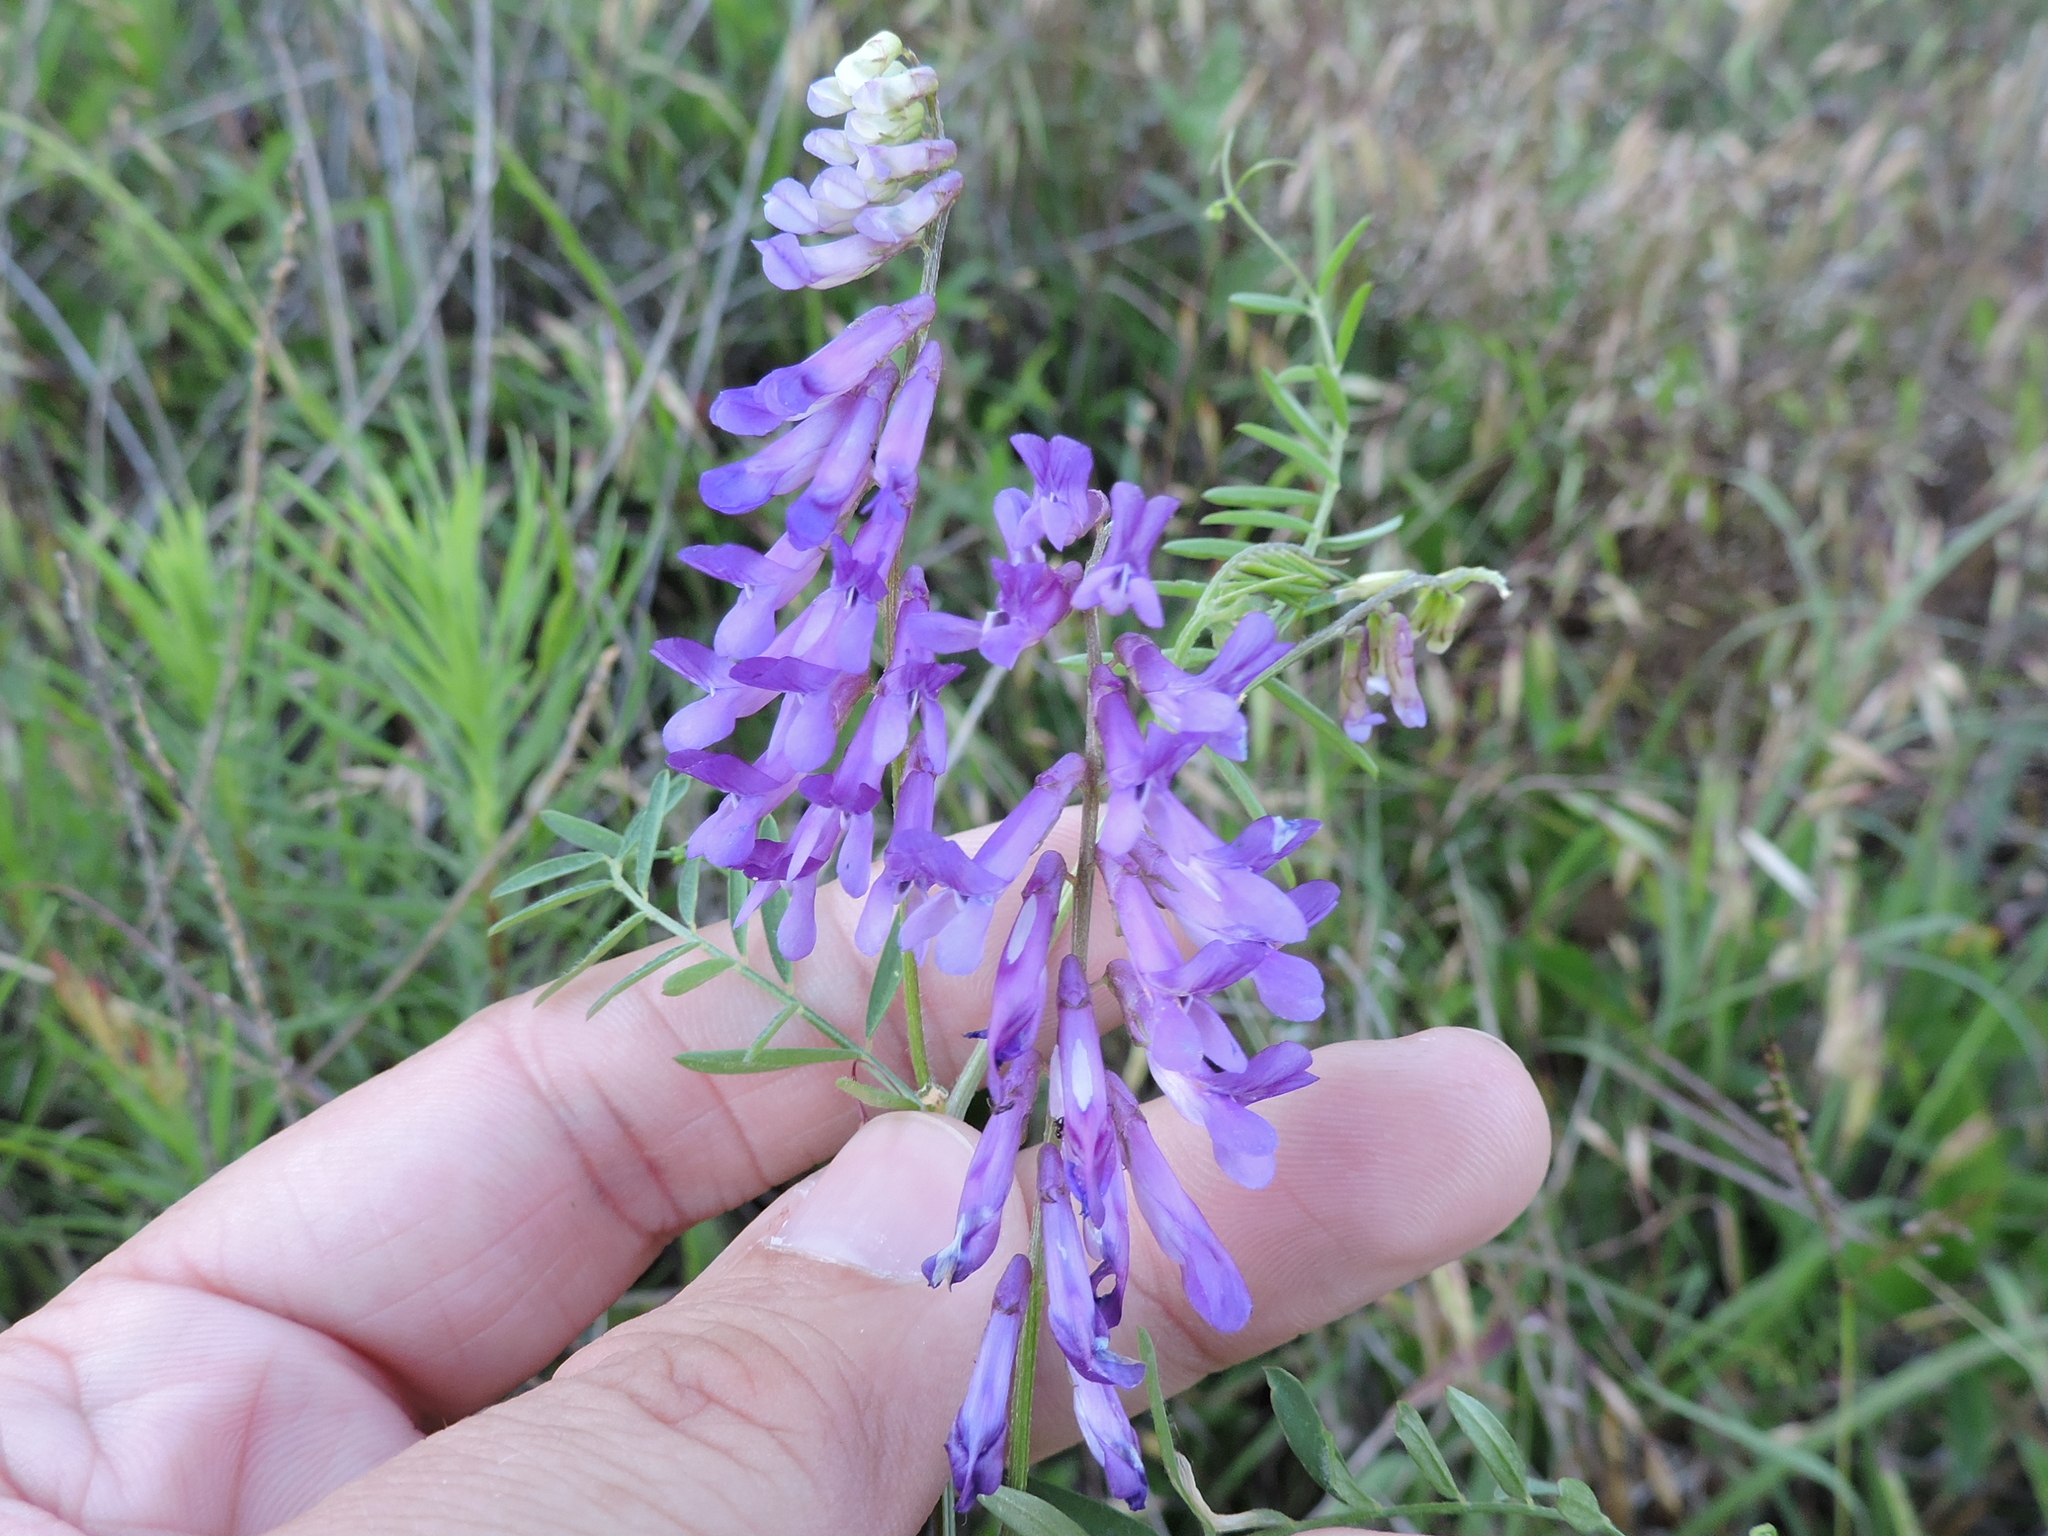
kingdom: Plantae
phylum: Tracheophyta
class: Magnoliopsida
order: Fabales
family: Fabaceae
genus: Vicia
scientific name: Vicia villosa
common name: Fodder vetch
